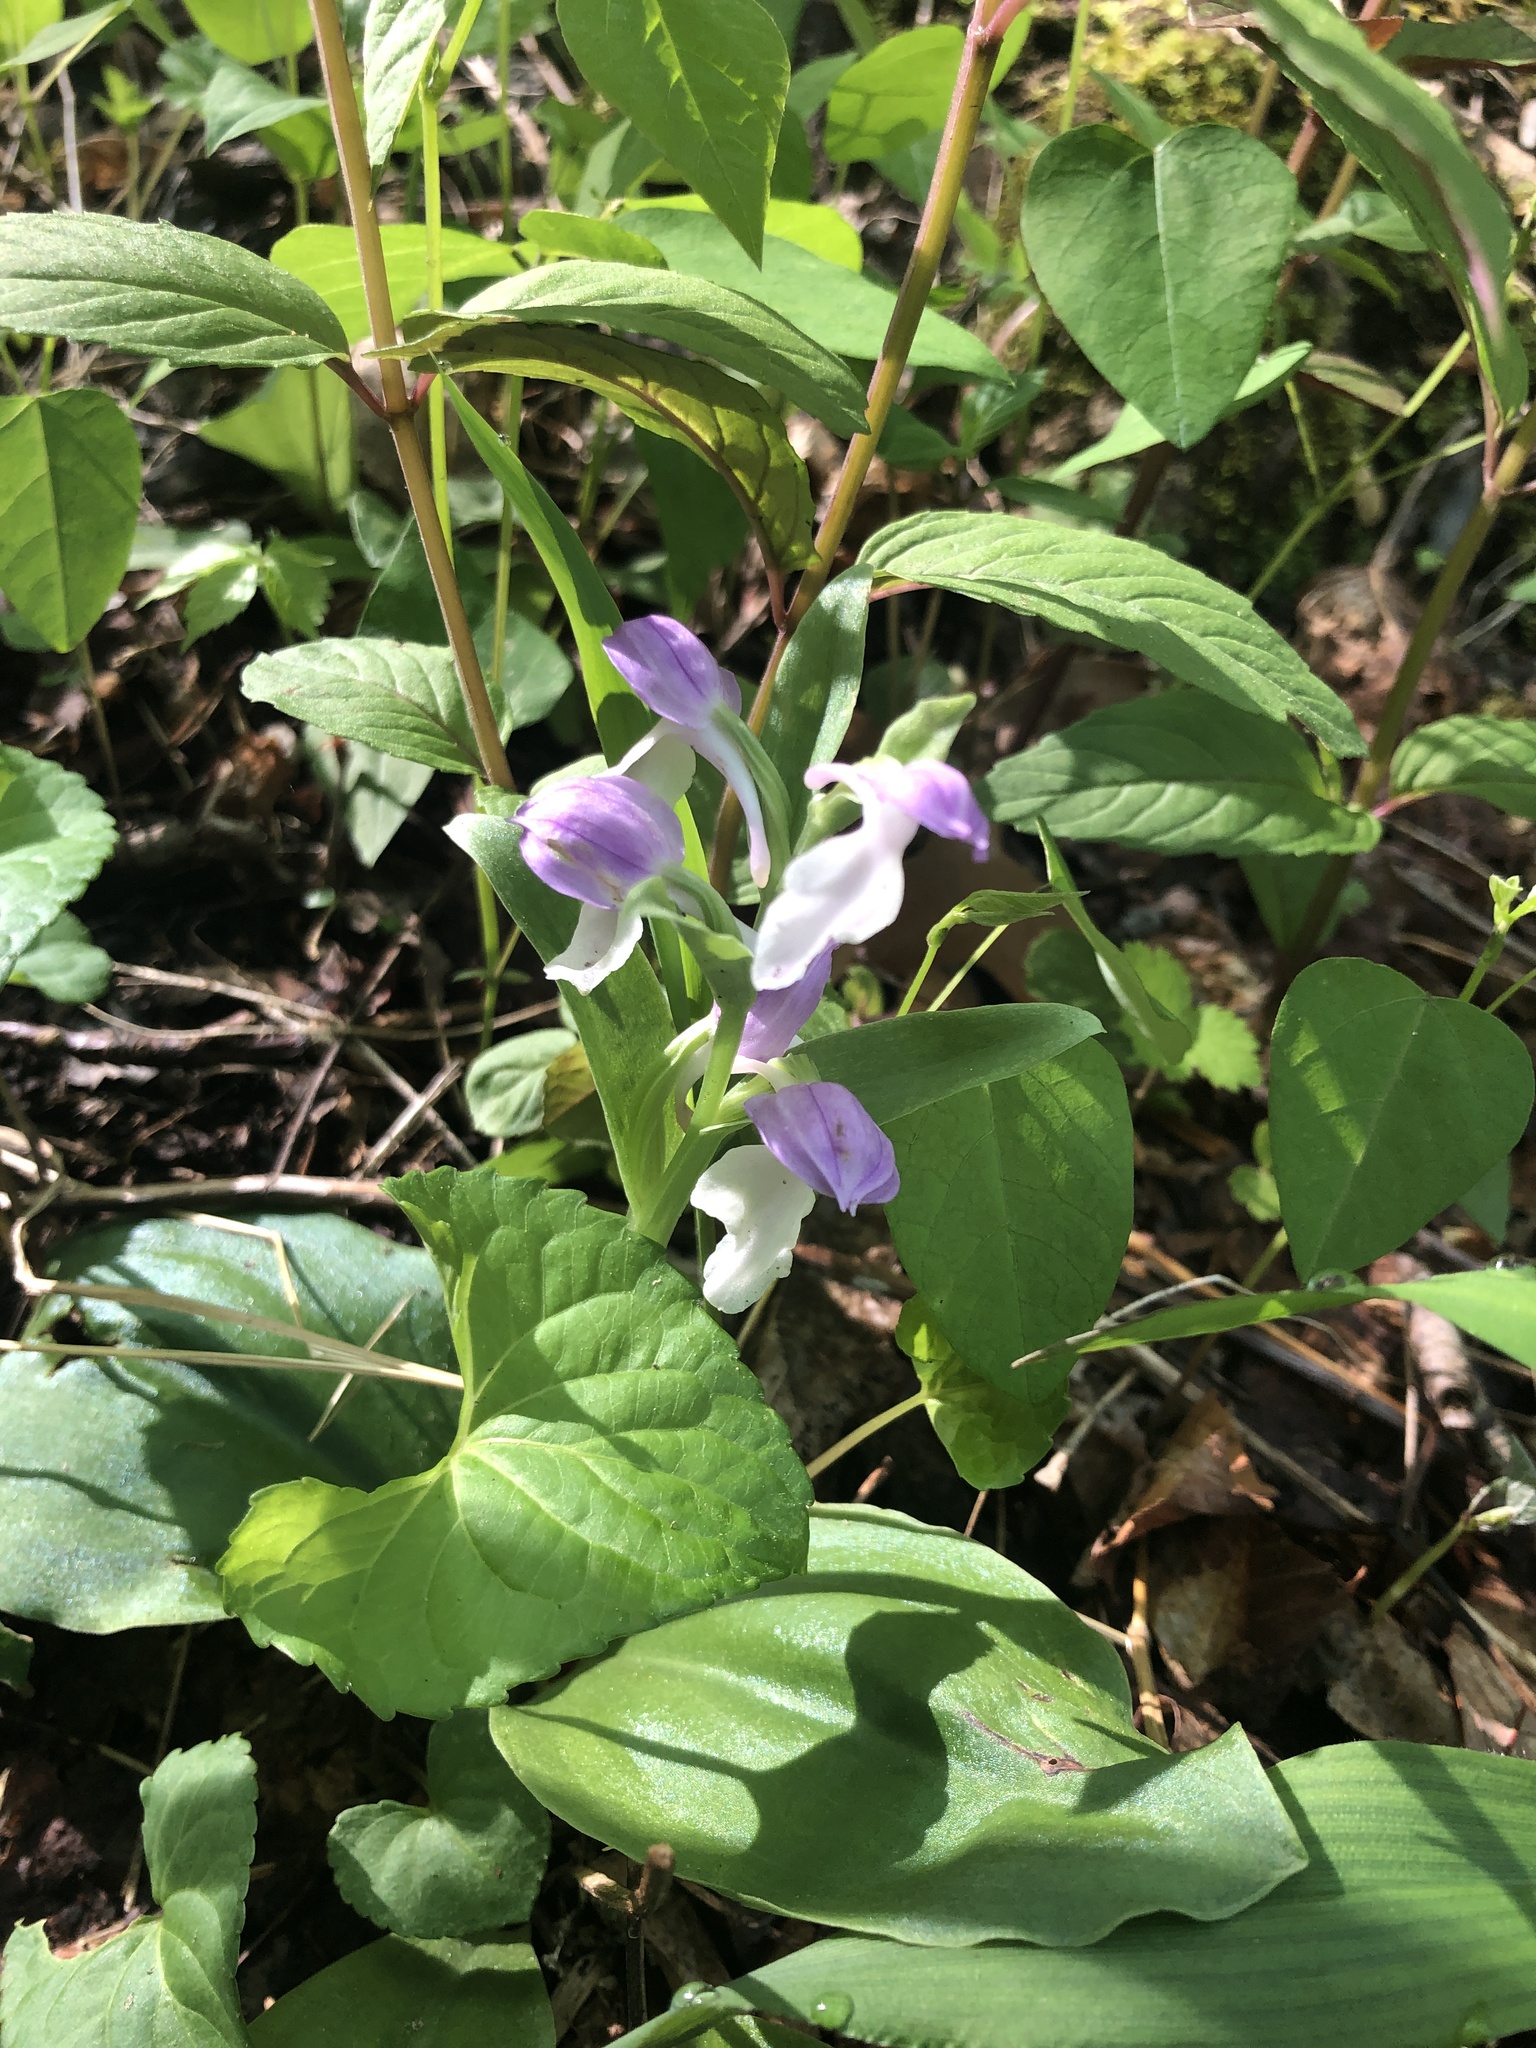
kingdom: Plantae
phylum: Tracheophyta
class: Liliopsida
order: Asparagales
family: Orchidaceae
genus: Galearis
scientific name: Galearis spectabilis
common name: Purple-hooded orchis
